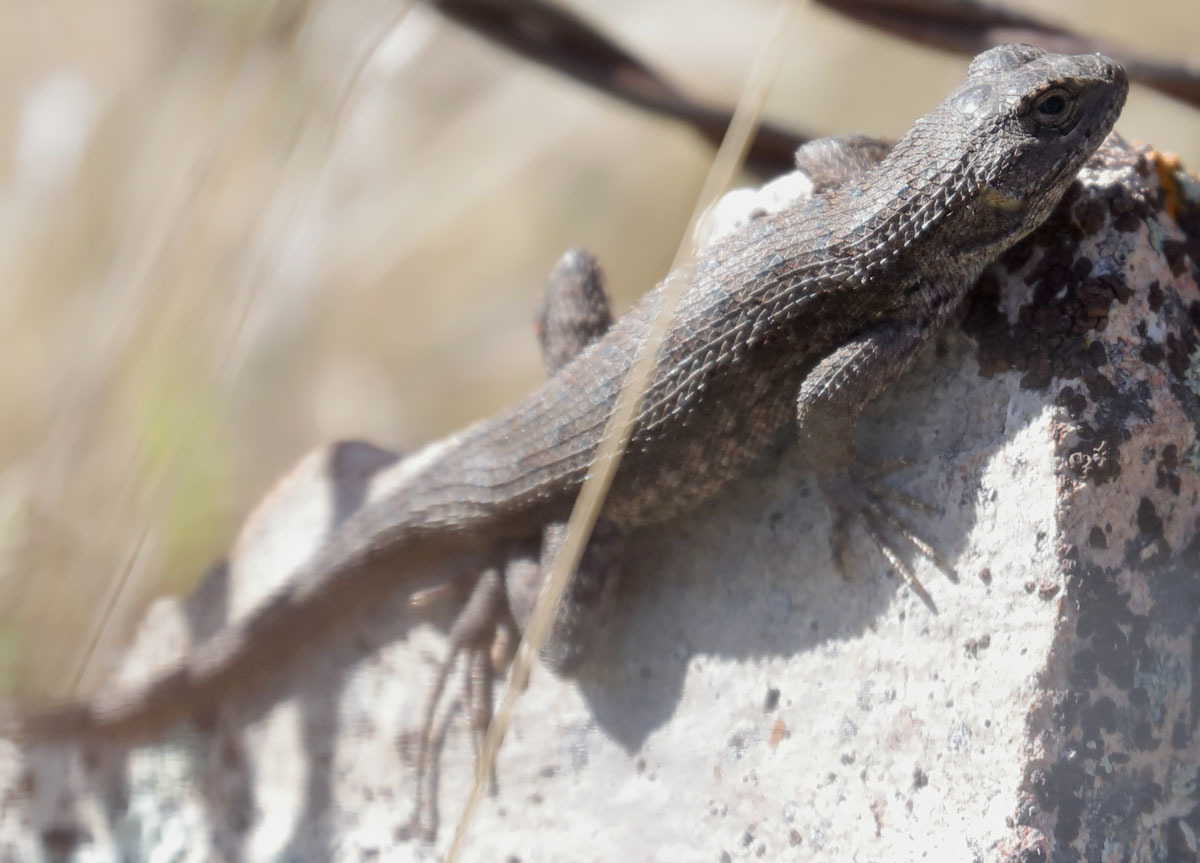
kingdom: Animalia
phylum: Chordata
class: Squamata
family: Phrynosomatidae
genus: Sceloporus
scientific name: Sceloporus occidentalis
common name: Western fence lizard
